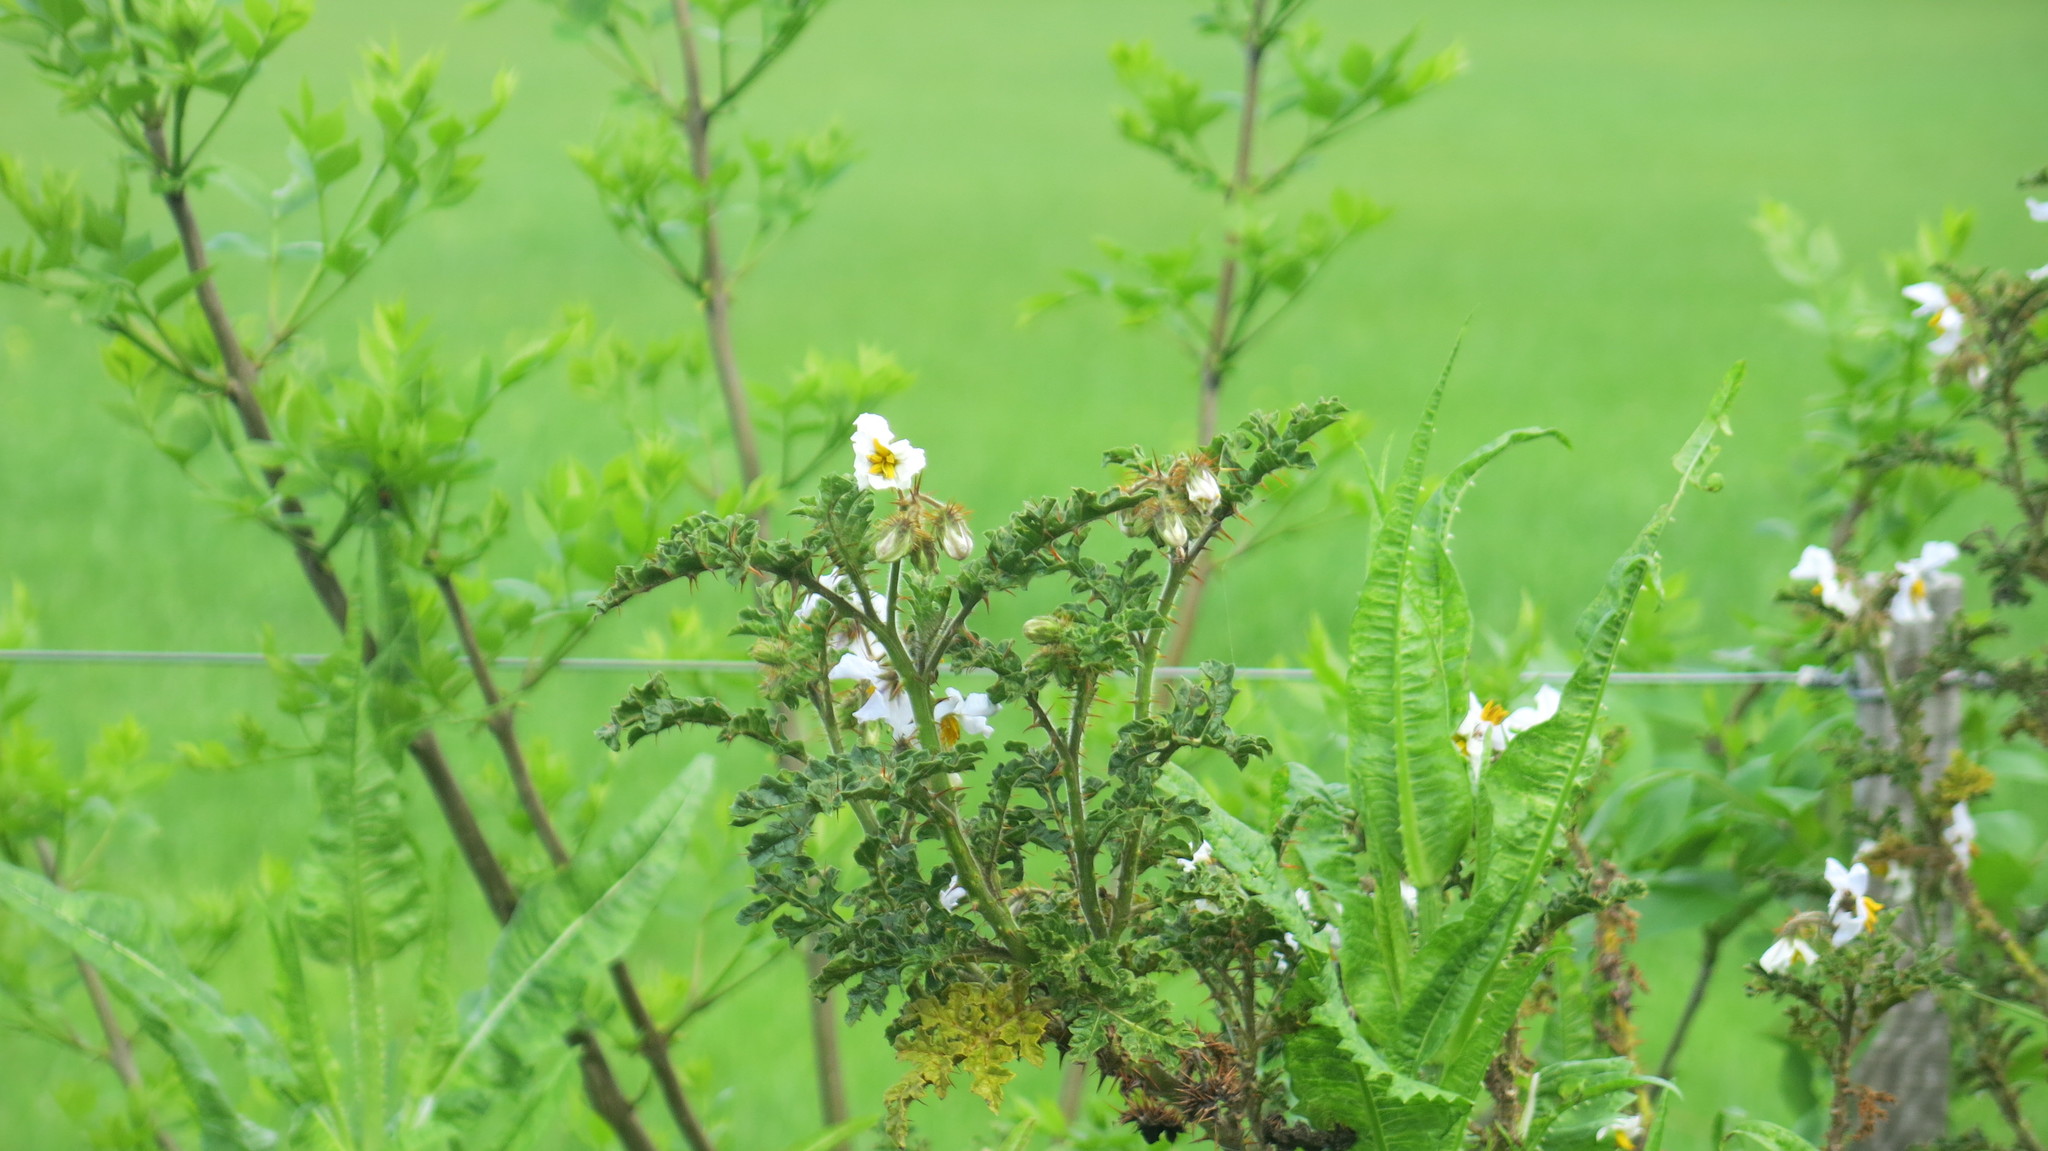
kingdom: Plantae
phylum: Tracheophyta
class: Magnoliopsida
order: Solanales
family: Solanaceae
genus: Solanum
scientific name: Solanum sisymbriifolium
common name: Red buffalo-bur
